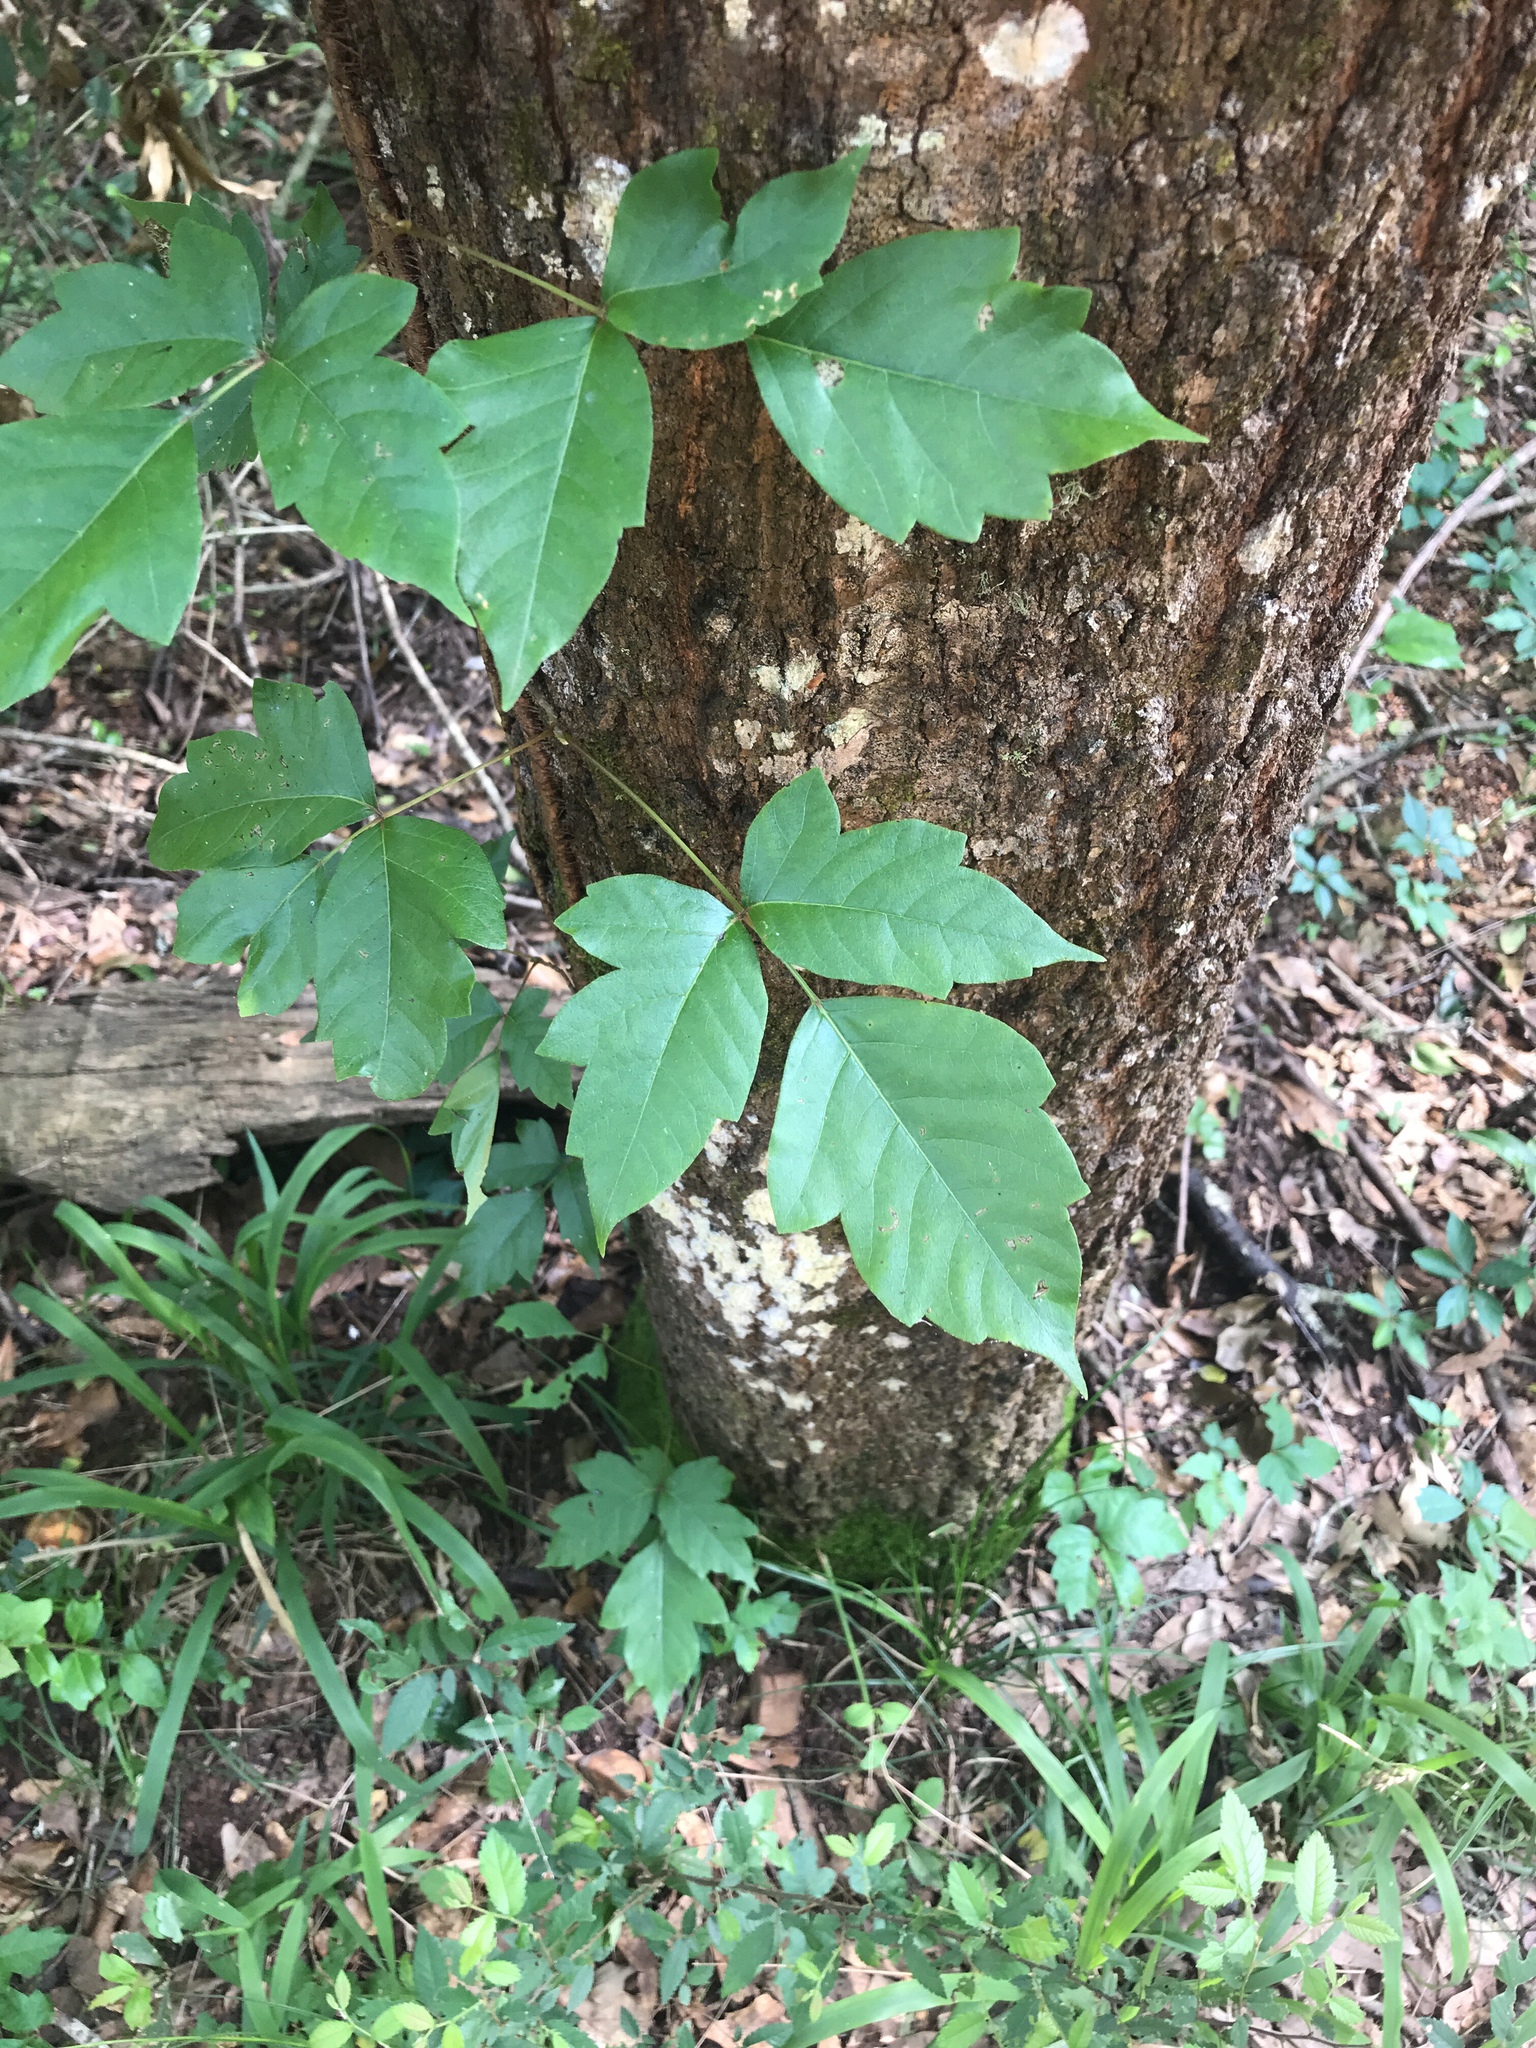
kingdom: Plantae
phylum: Tracheophyta
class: Magnoliopsida
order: Sapindales
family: Anacardiaceae
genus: Toxicodendron
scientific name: Toxicodendron radicans
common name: Poison ivy
